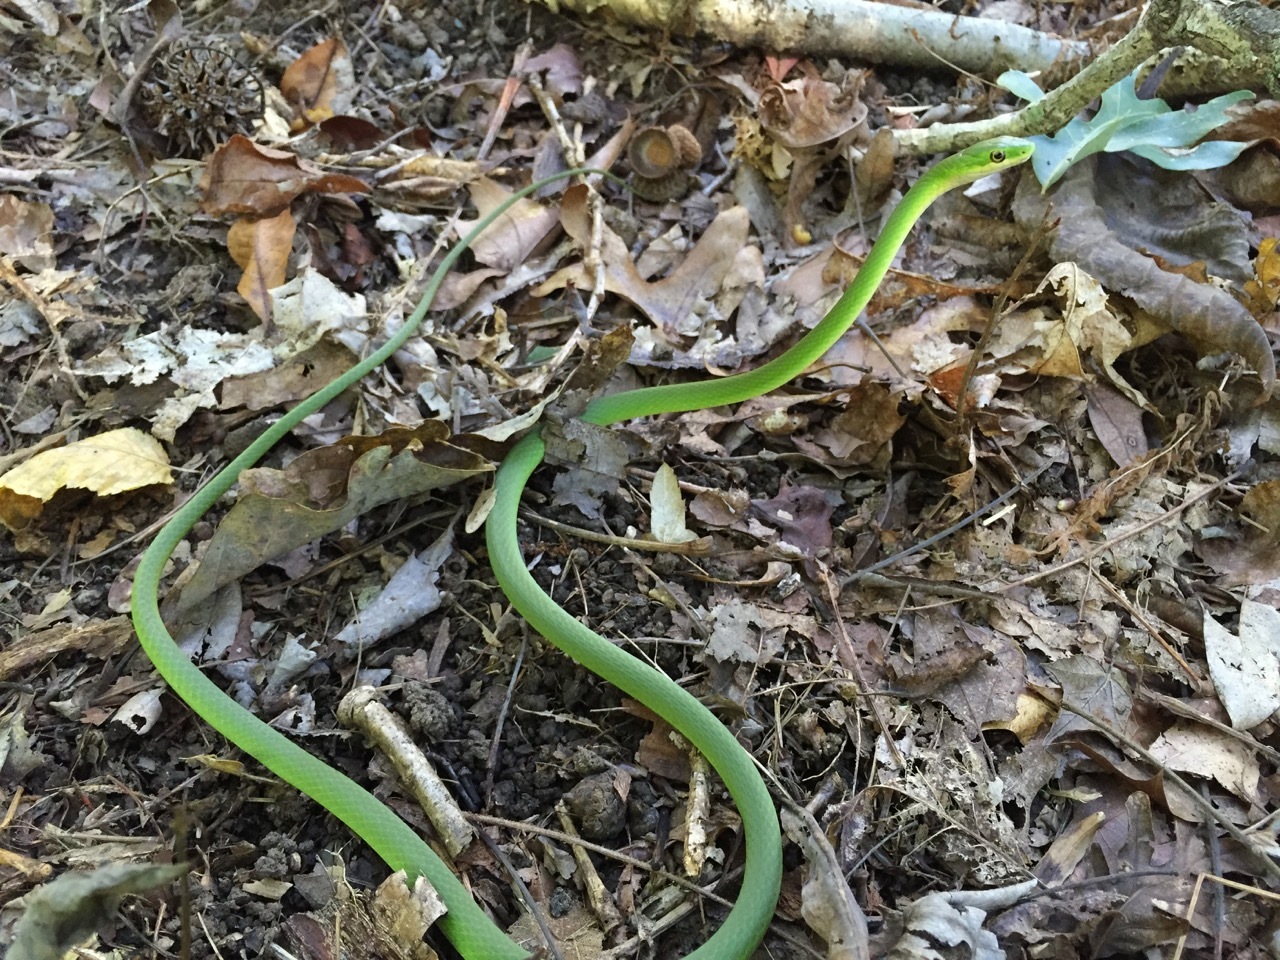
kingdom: Animalia
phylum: Chordata
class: Squamata
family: Colubridae
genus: Opheodrys
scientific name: Opheodrys aestivus
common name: Rough greensnake
